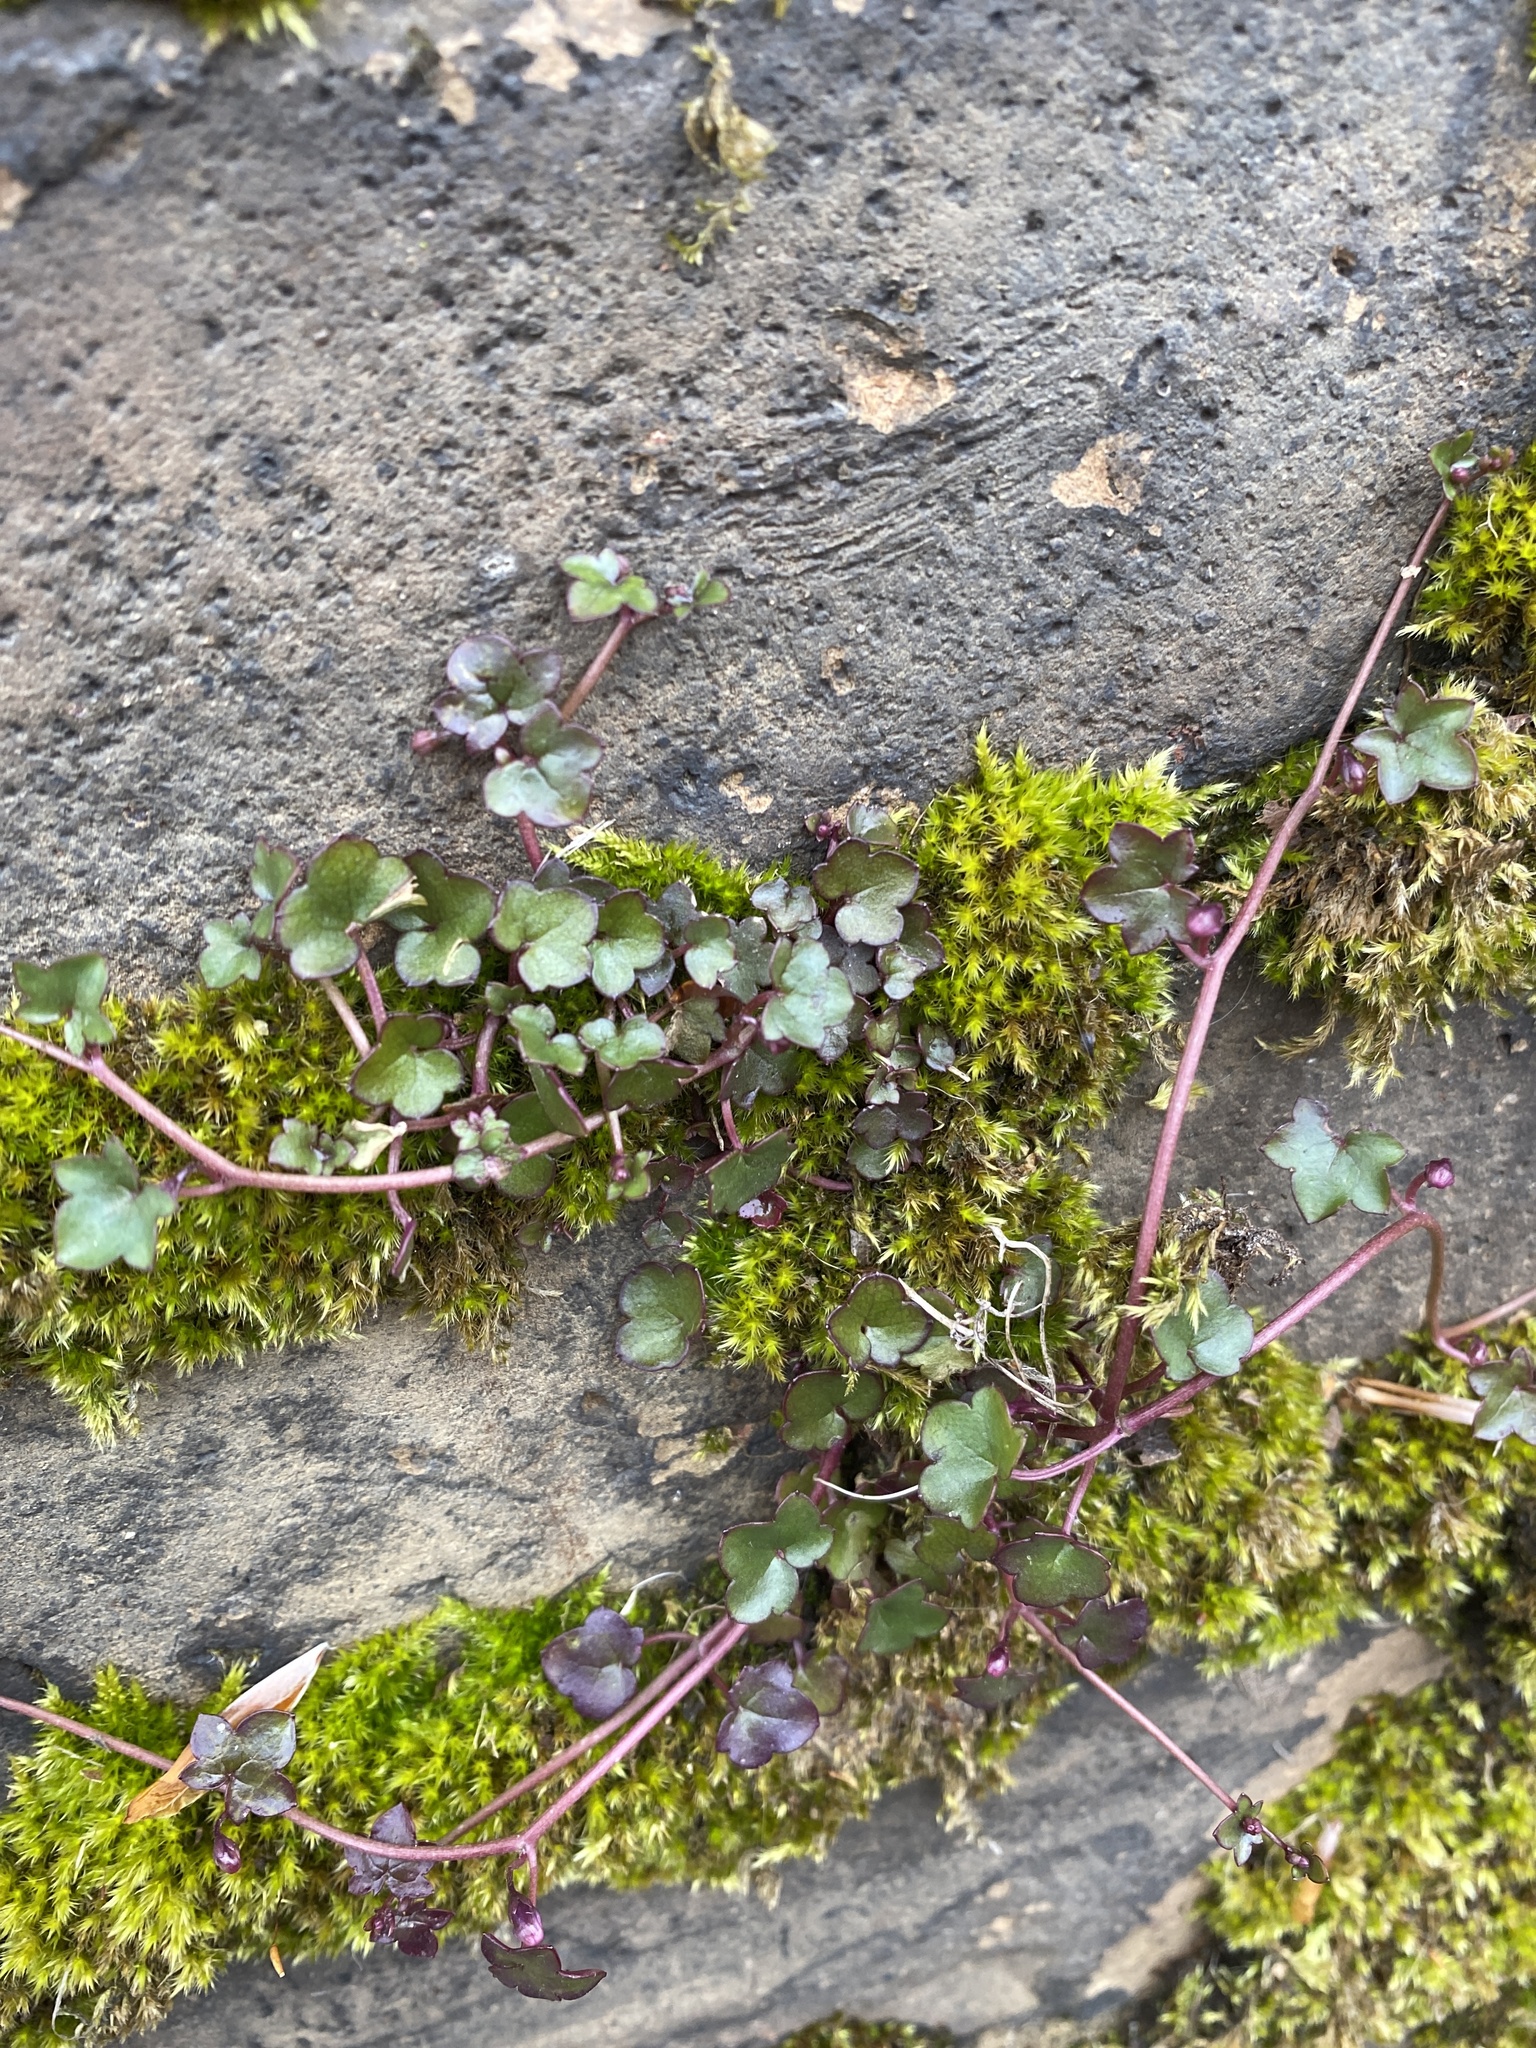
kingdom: Plantae
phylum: Tracheophyta
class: Magnoliopsida
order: Lamiales
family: Plantaginaceae
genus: Cymbalaria
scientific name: Cymbalaria muralis
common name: Ivy-leaved toadflax
